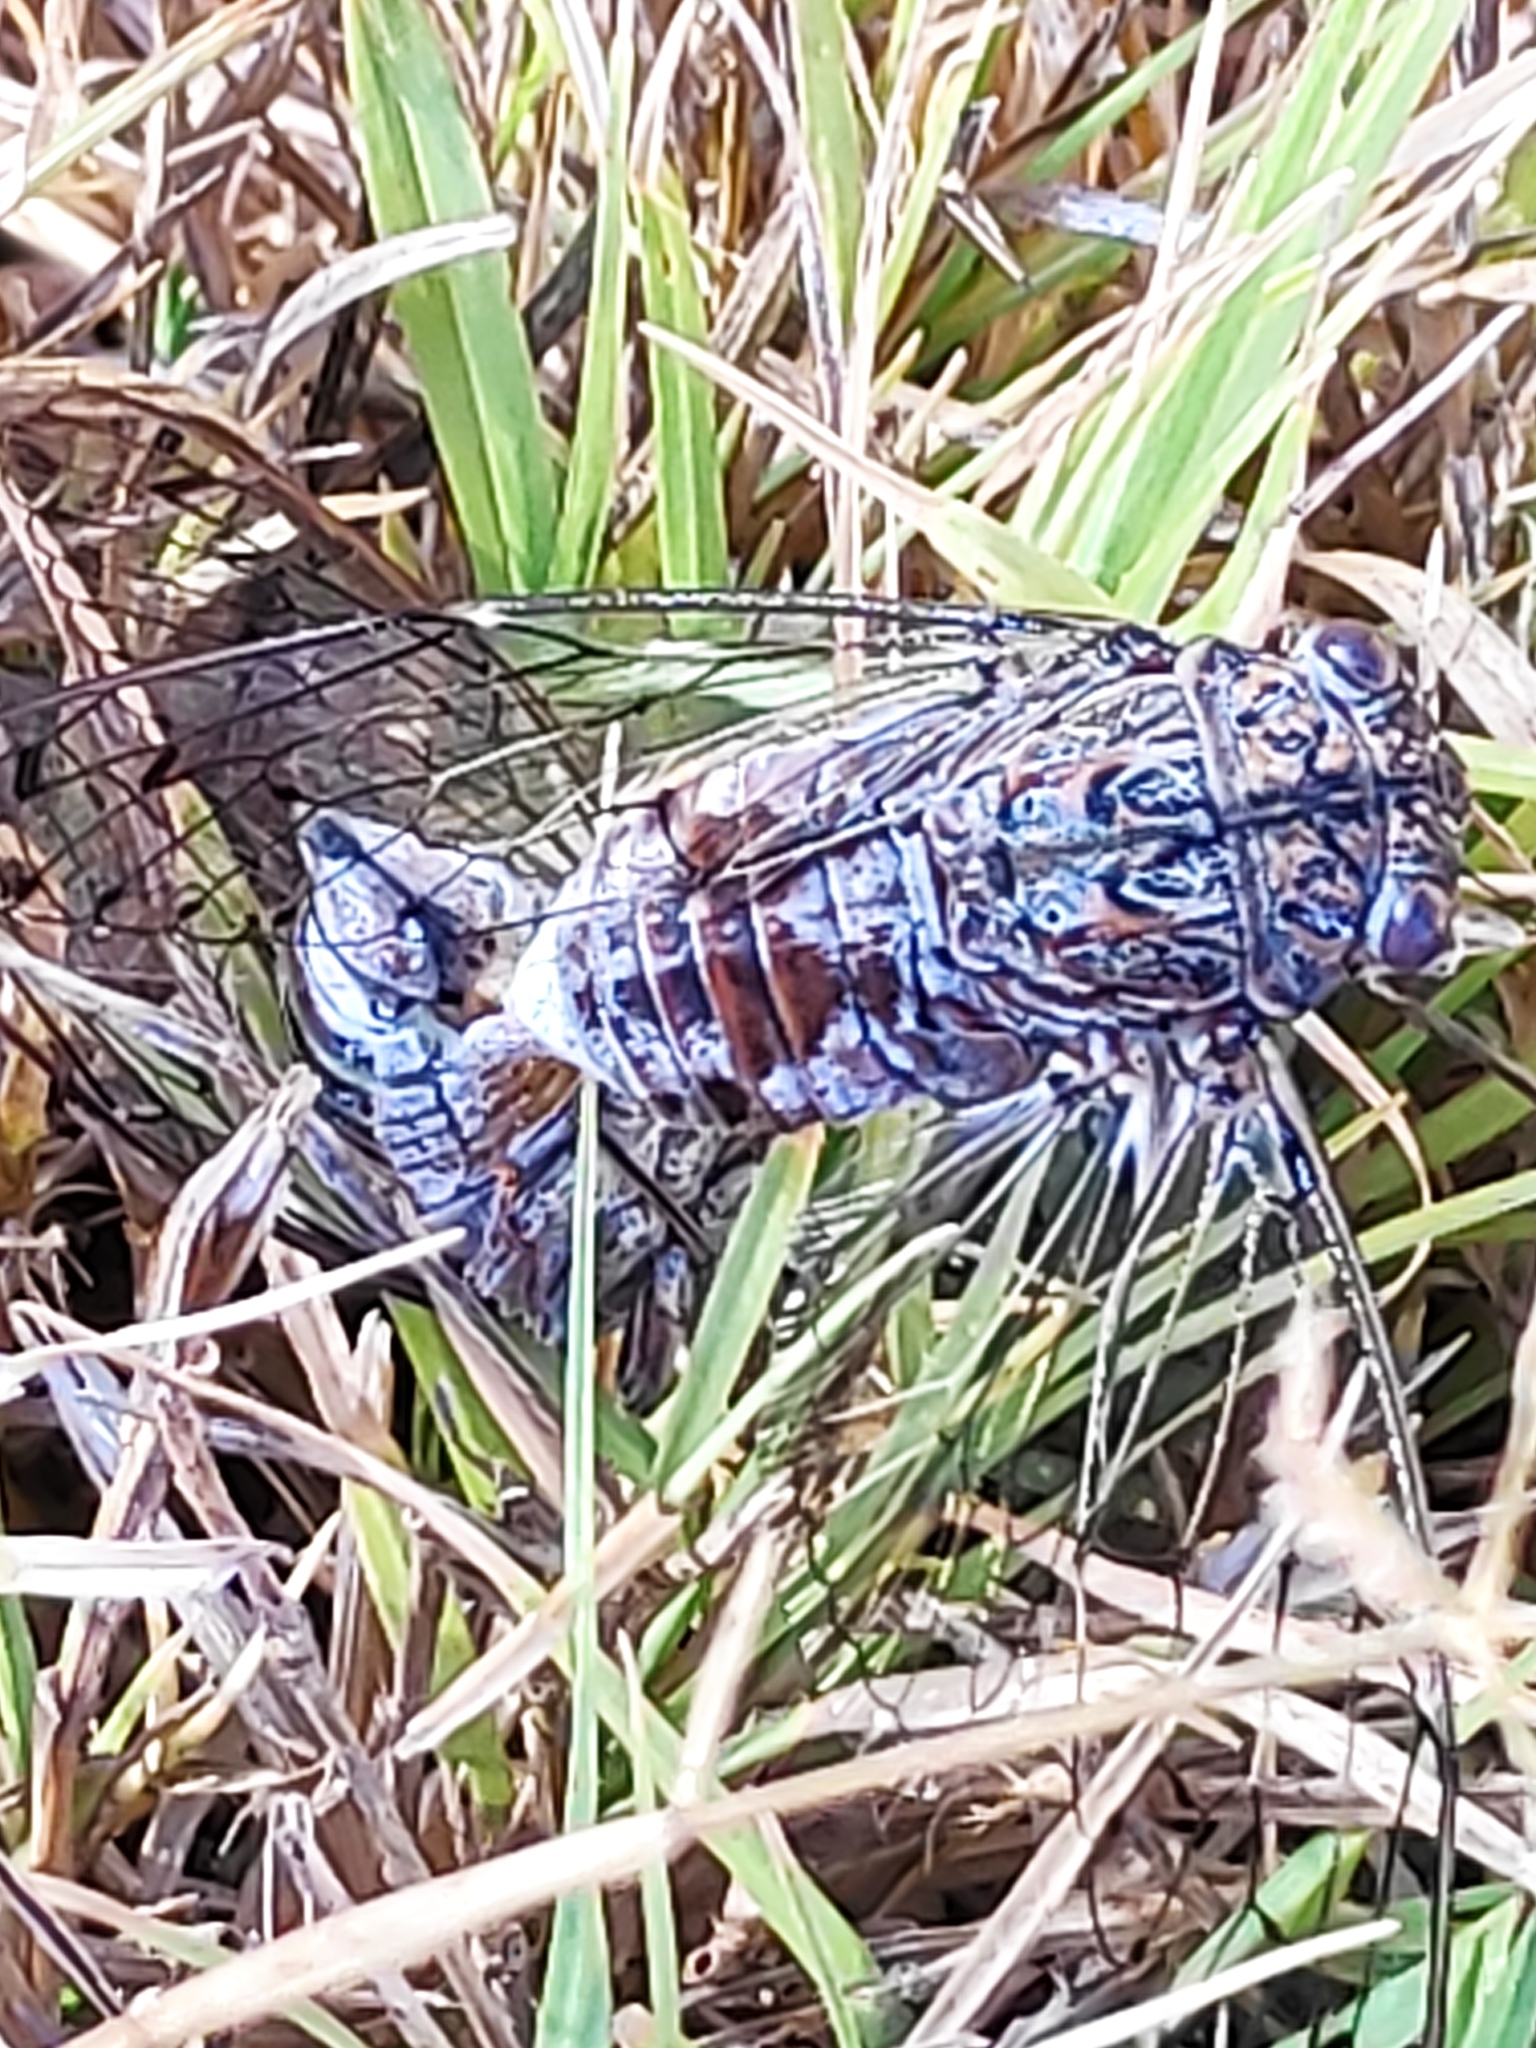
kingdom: Animalia
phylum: Arthropoda
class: Insecta
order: Hemiptera
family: Cicadidae
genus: Cicada
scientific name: Cicada barbara
